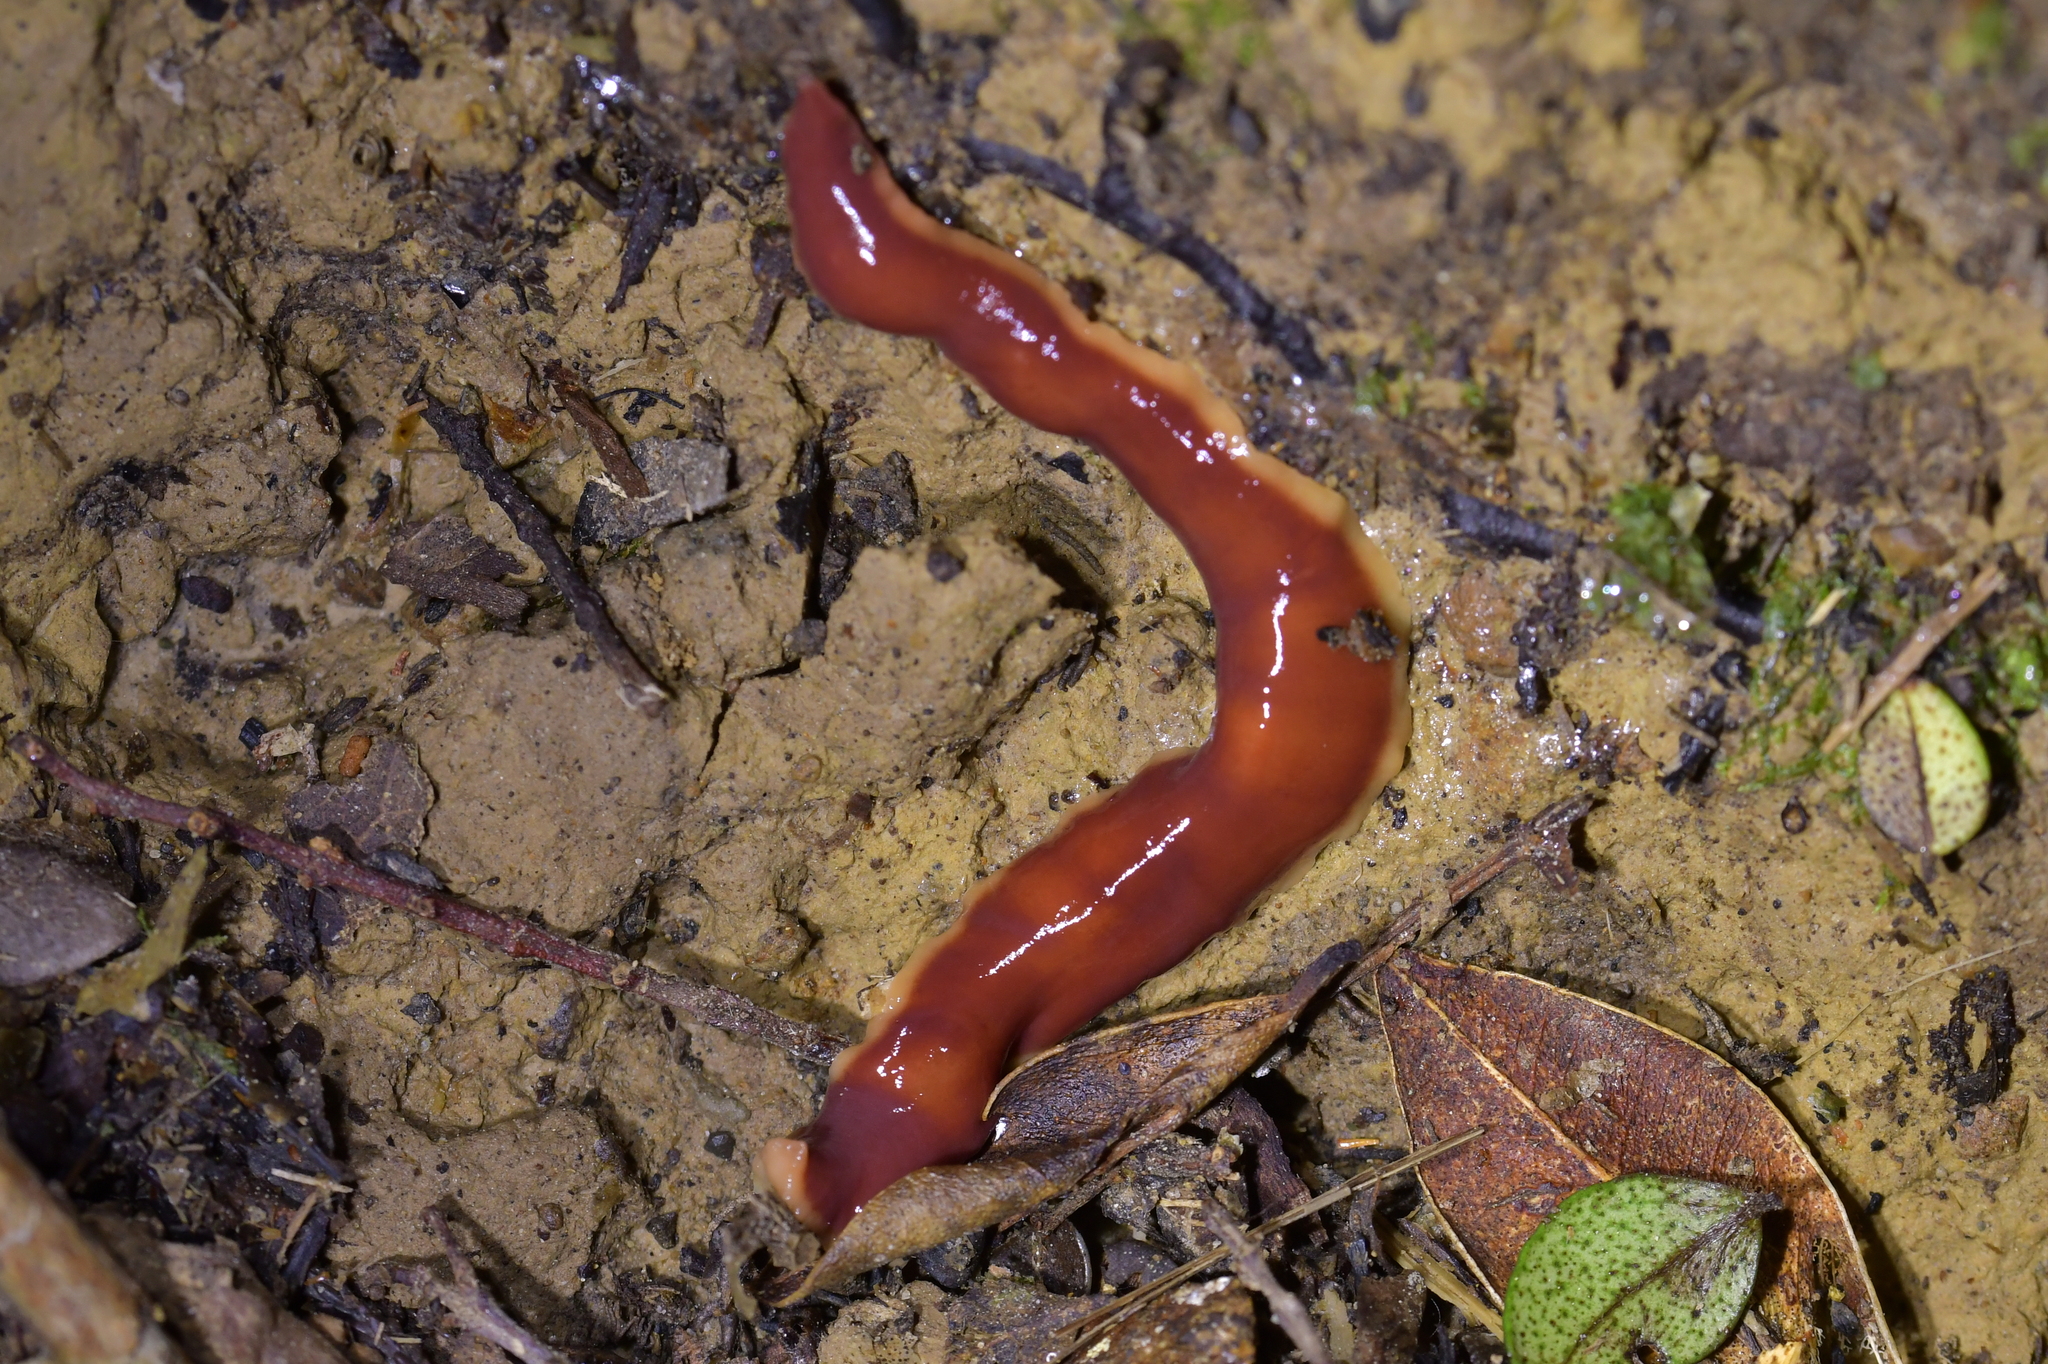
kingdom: Animalia
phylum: Platyhelminthes
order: Tricladida
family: Geoplanidae
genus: Arthurdendyus
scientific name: Arthurdendyus testaceus
